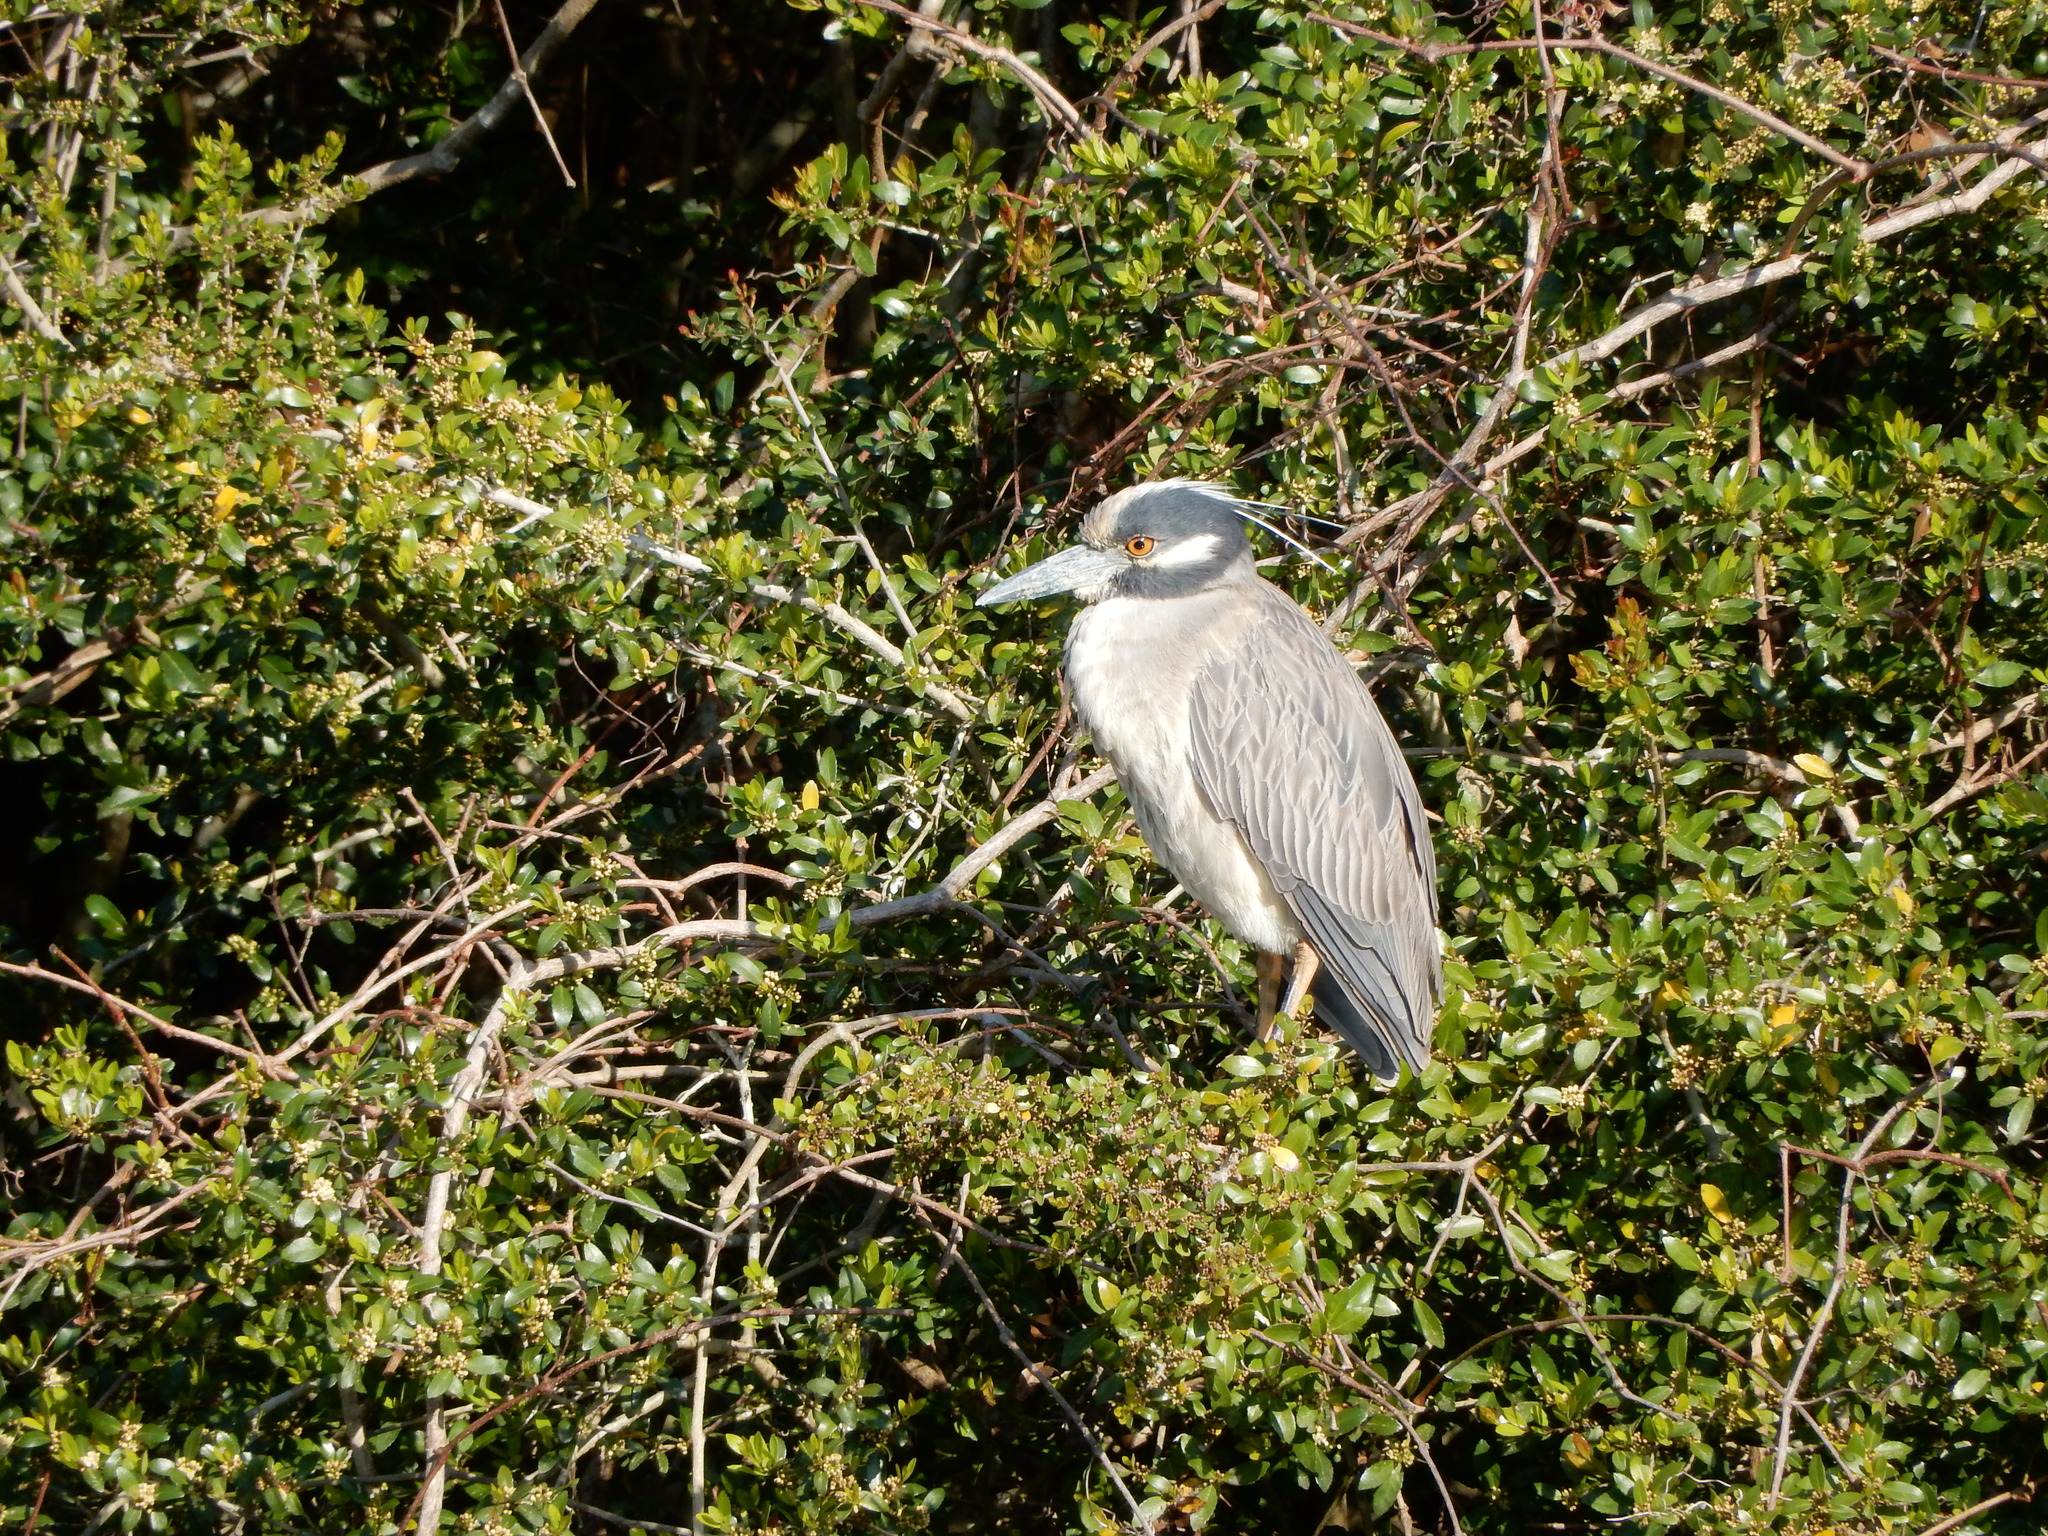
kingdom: Animalia
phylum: Chordata
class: Aves
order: Pelecaniformes
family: Ardeidae
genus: Nyctanassa
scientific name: Nyctanassa violacea
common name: Yellow-crowned night heron
